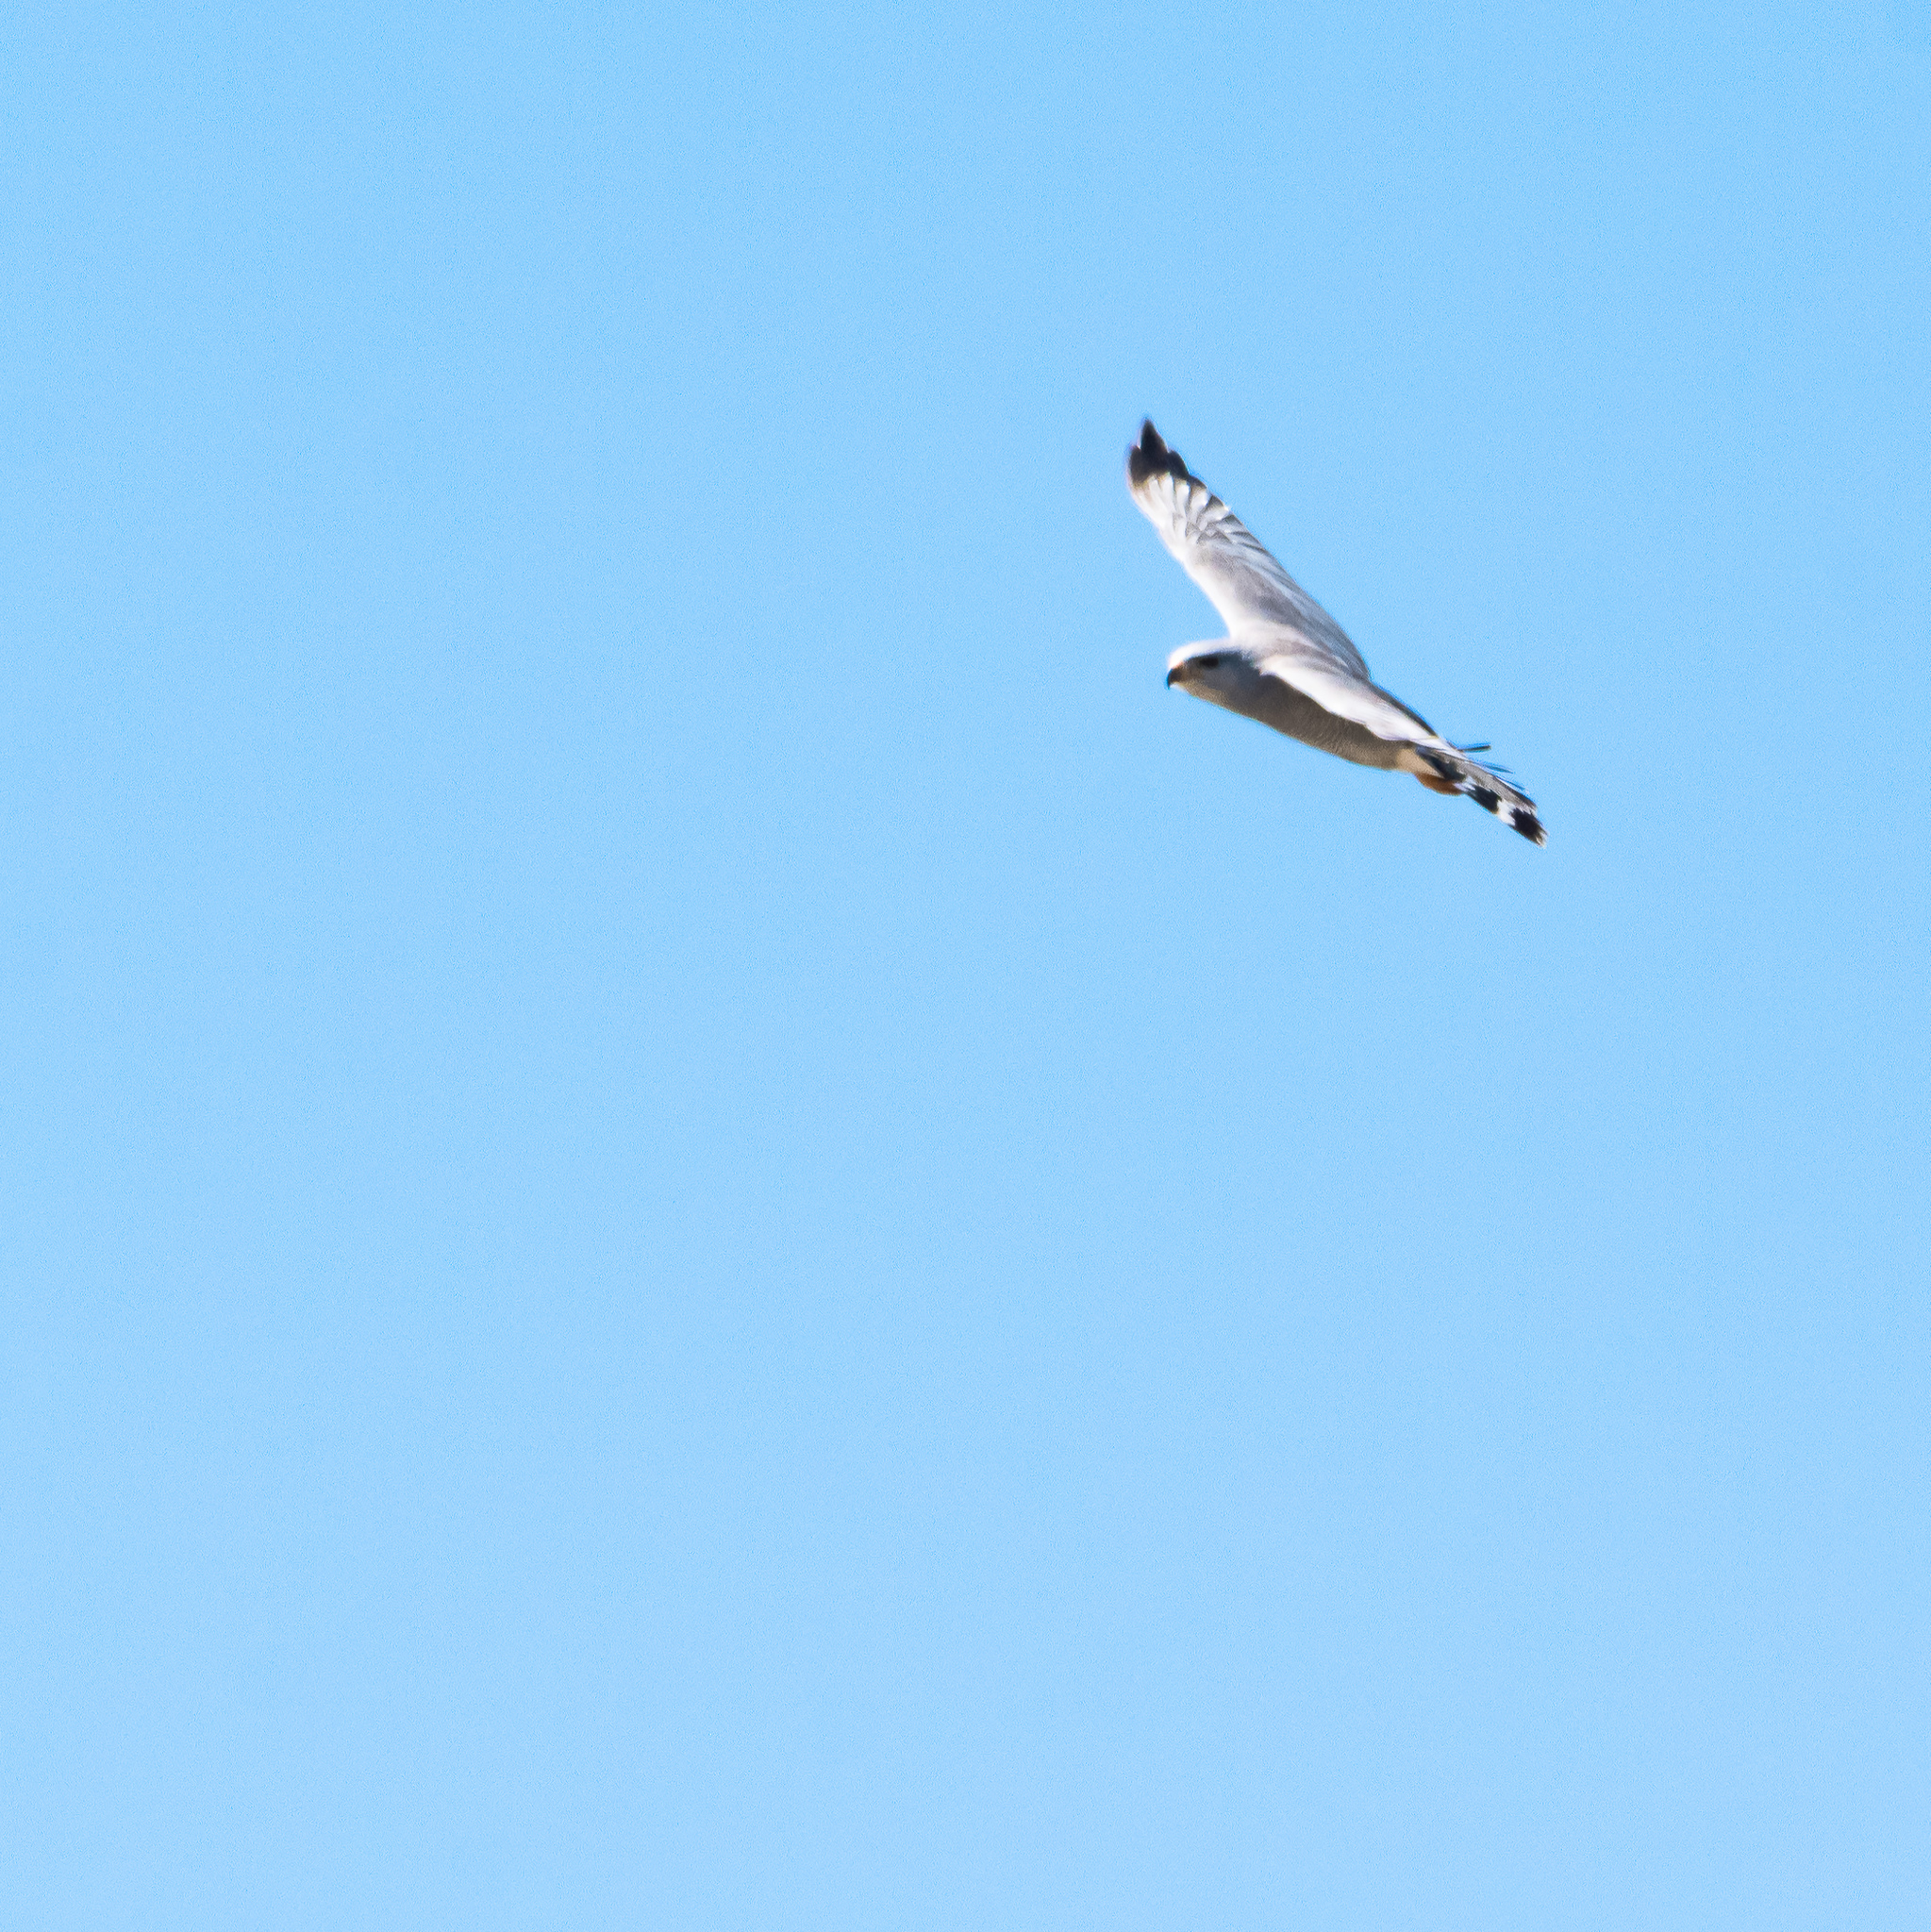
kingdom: Animalia
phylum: Chordata
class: Aves
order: Accipitriformes
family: Accipitridae
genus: Buteo
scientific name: Buteo nitidus
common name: Grey-lined hawk
